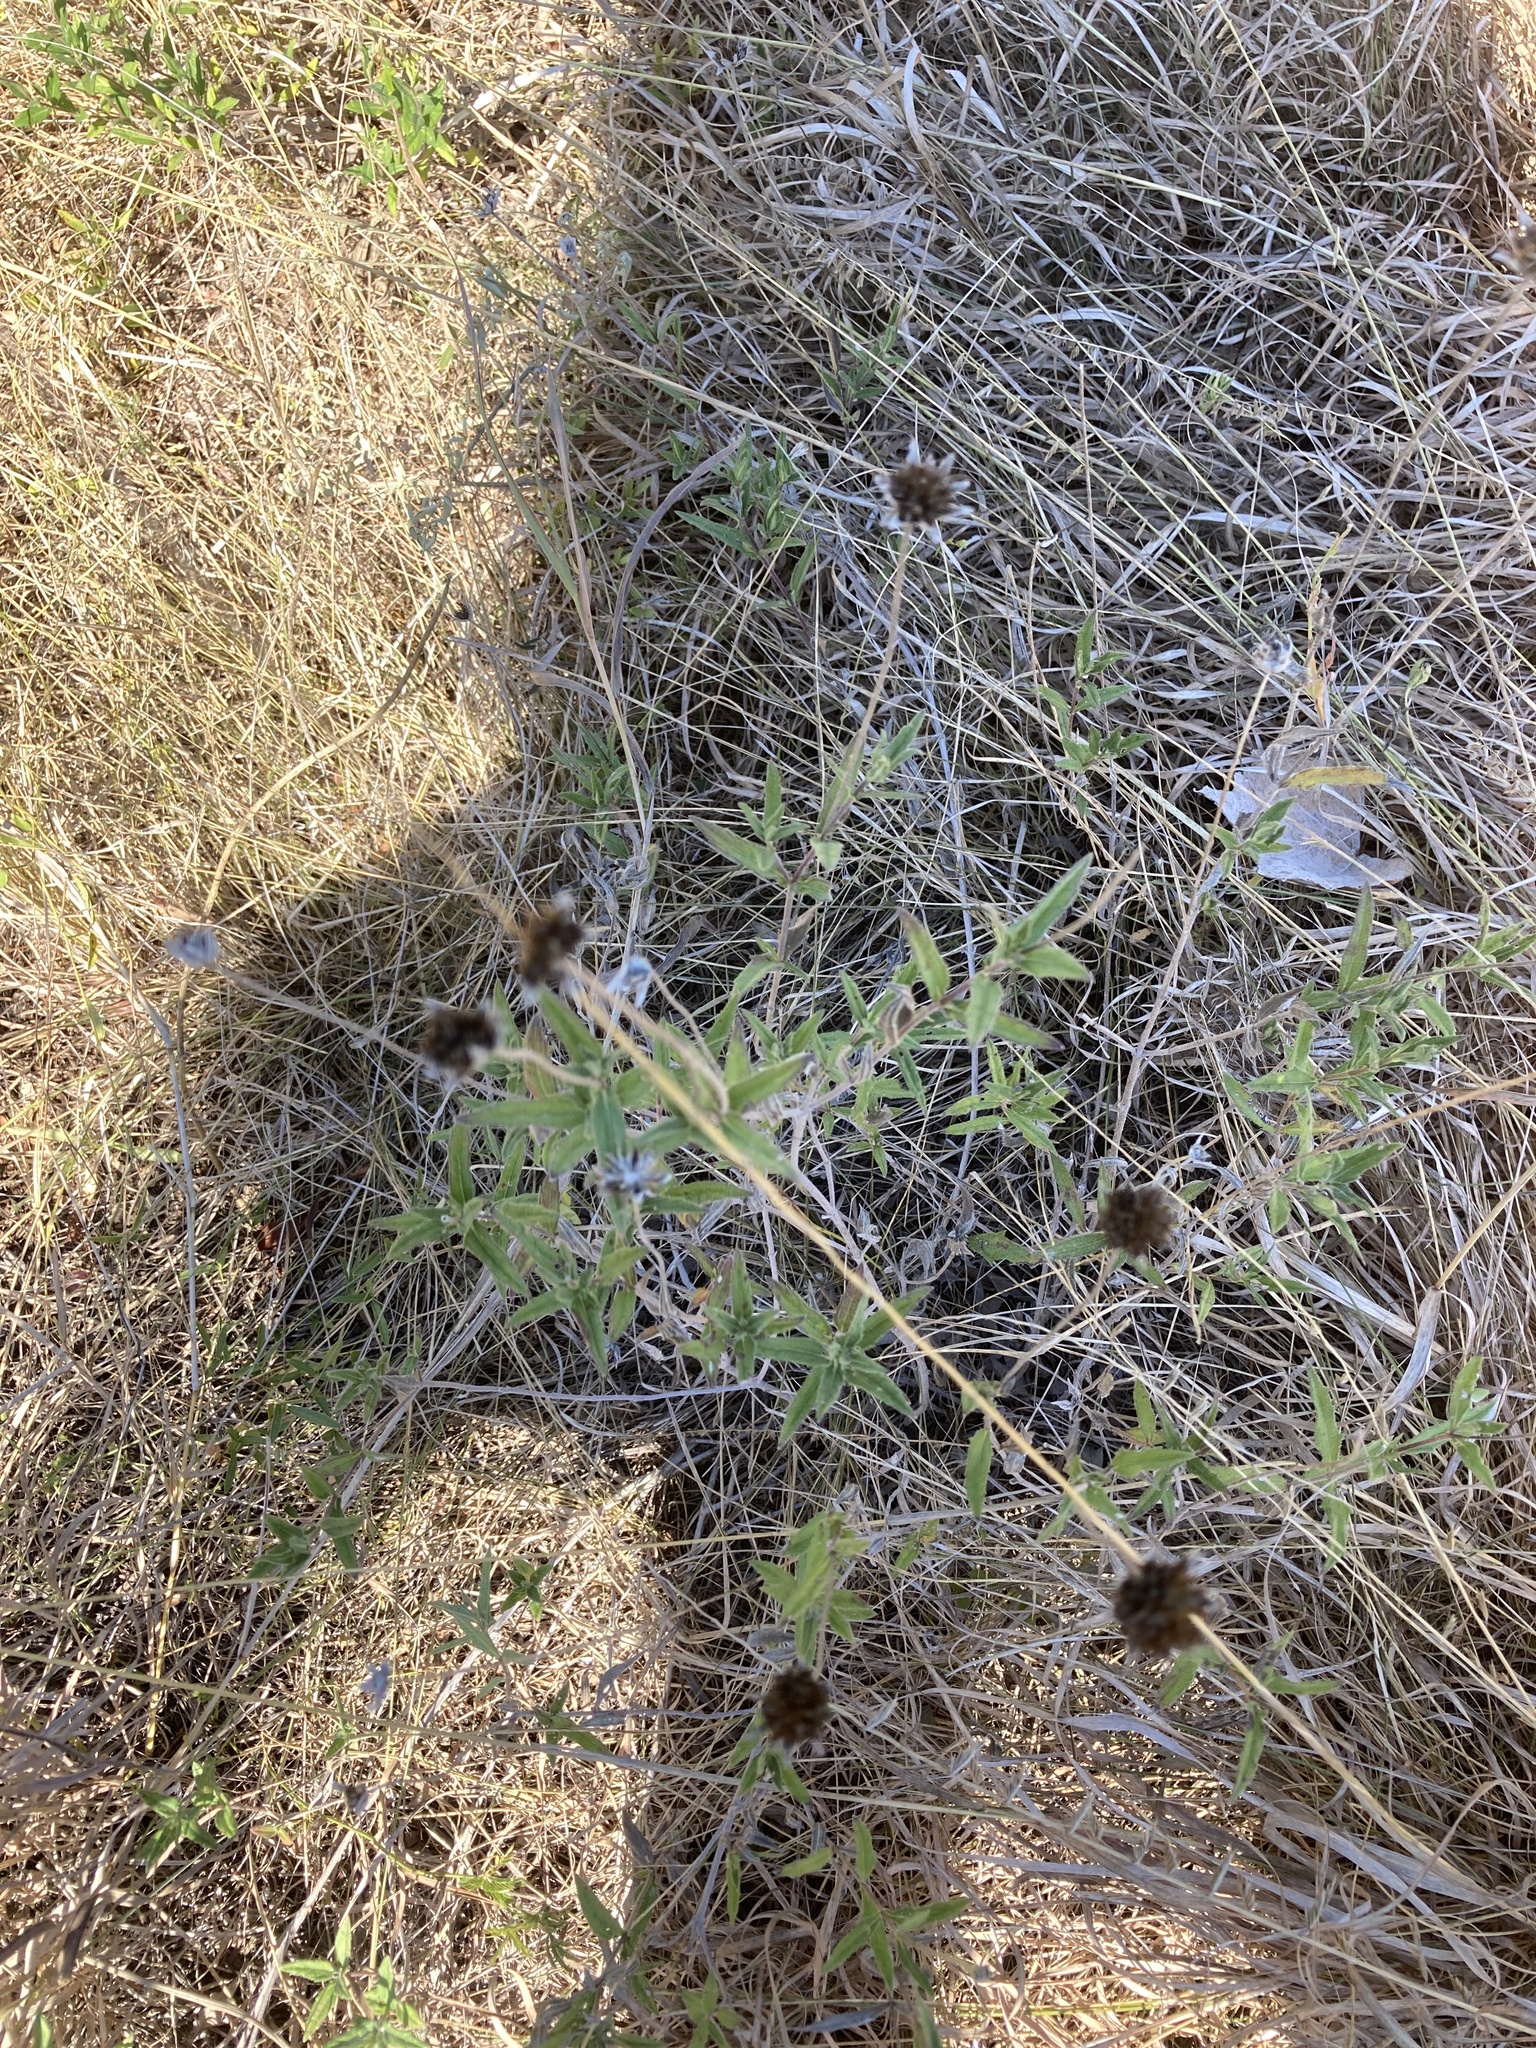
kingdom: Plantae
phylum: Tracheophyta
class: Magnoliopsida
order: Asterales
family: Asteraceae
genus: Wedelia
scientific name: Wedelia acapulcensis
